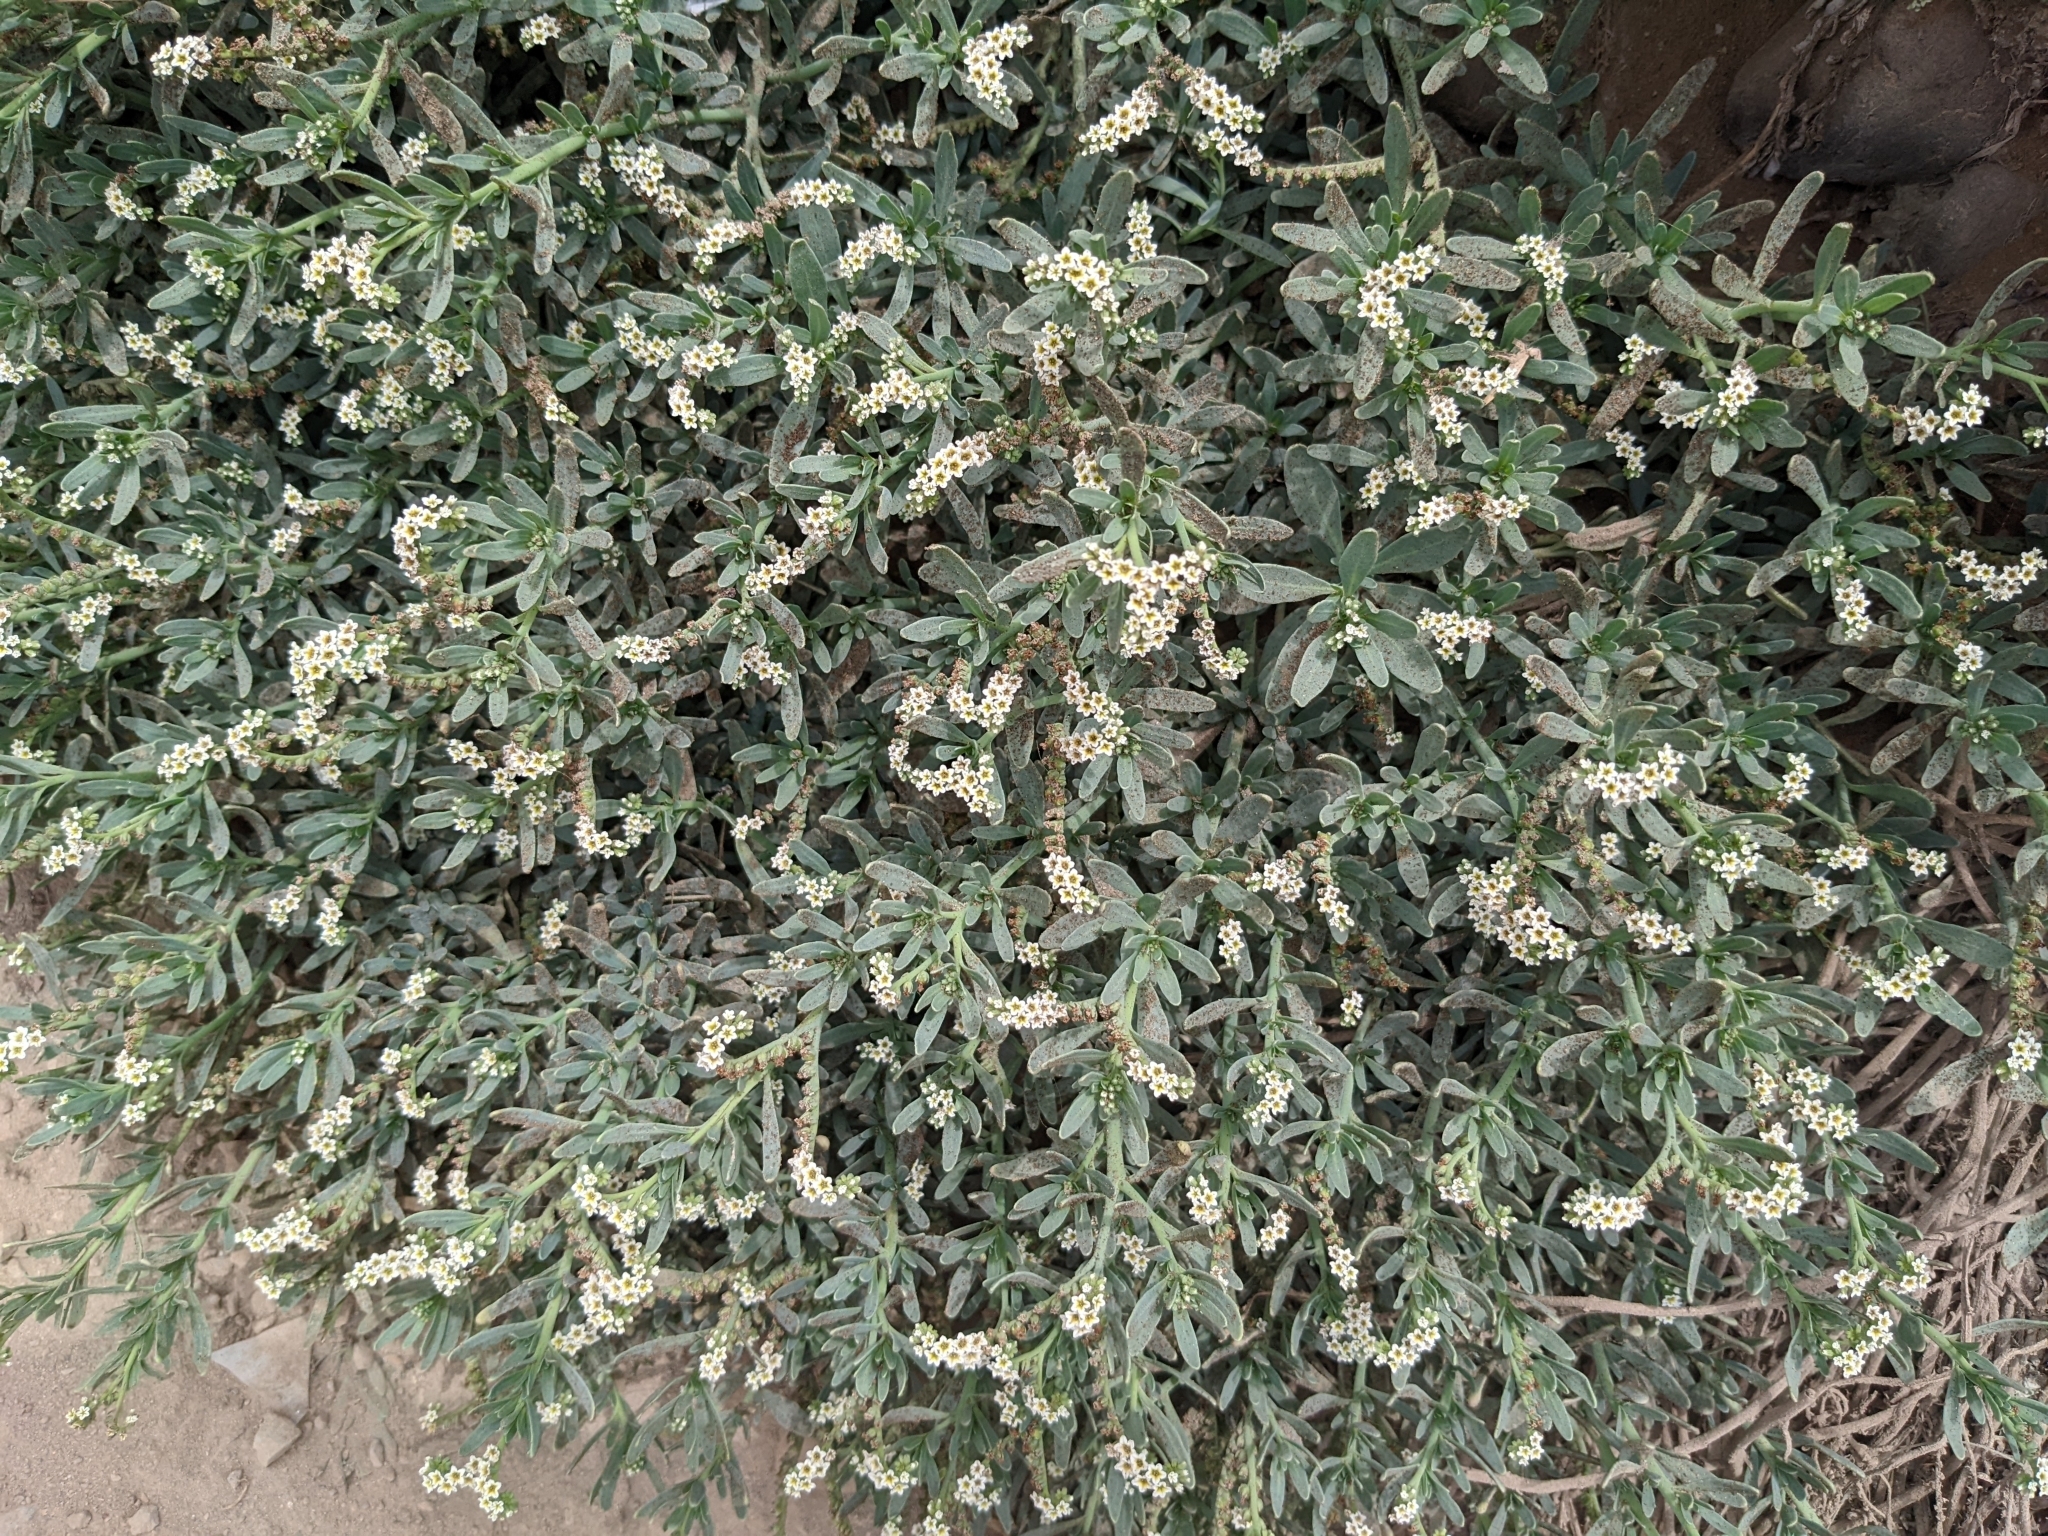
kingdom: Plantae
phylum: Tracheophyta
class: Magnoliopsida
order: Boraginales
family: Heliotropiaceae
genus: Heliotropium
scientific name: Heliotropium curassavicum
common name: Seaside heliotrope
